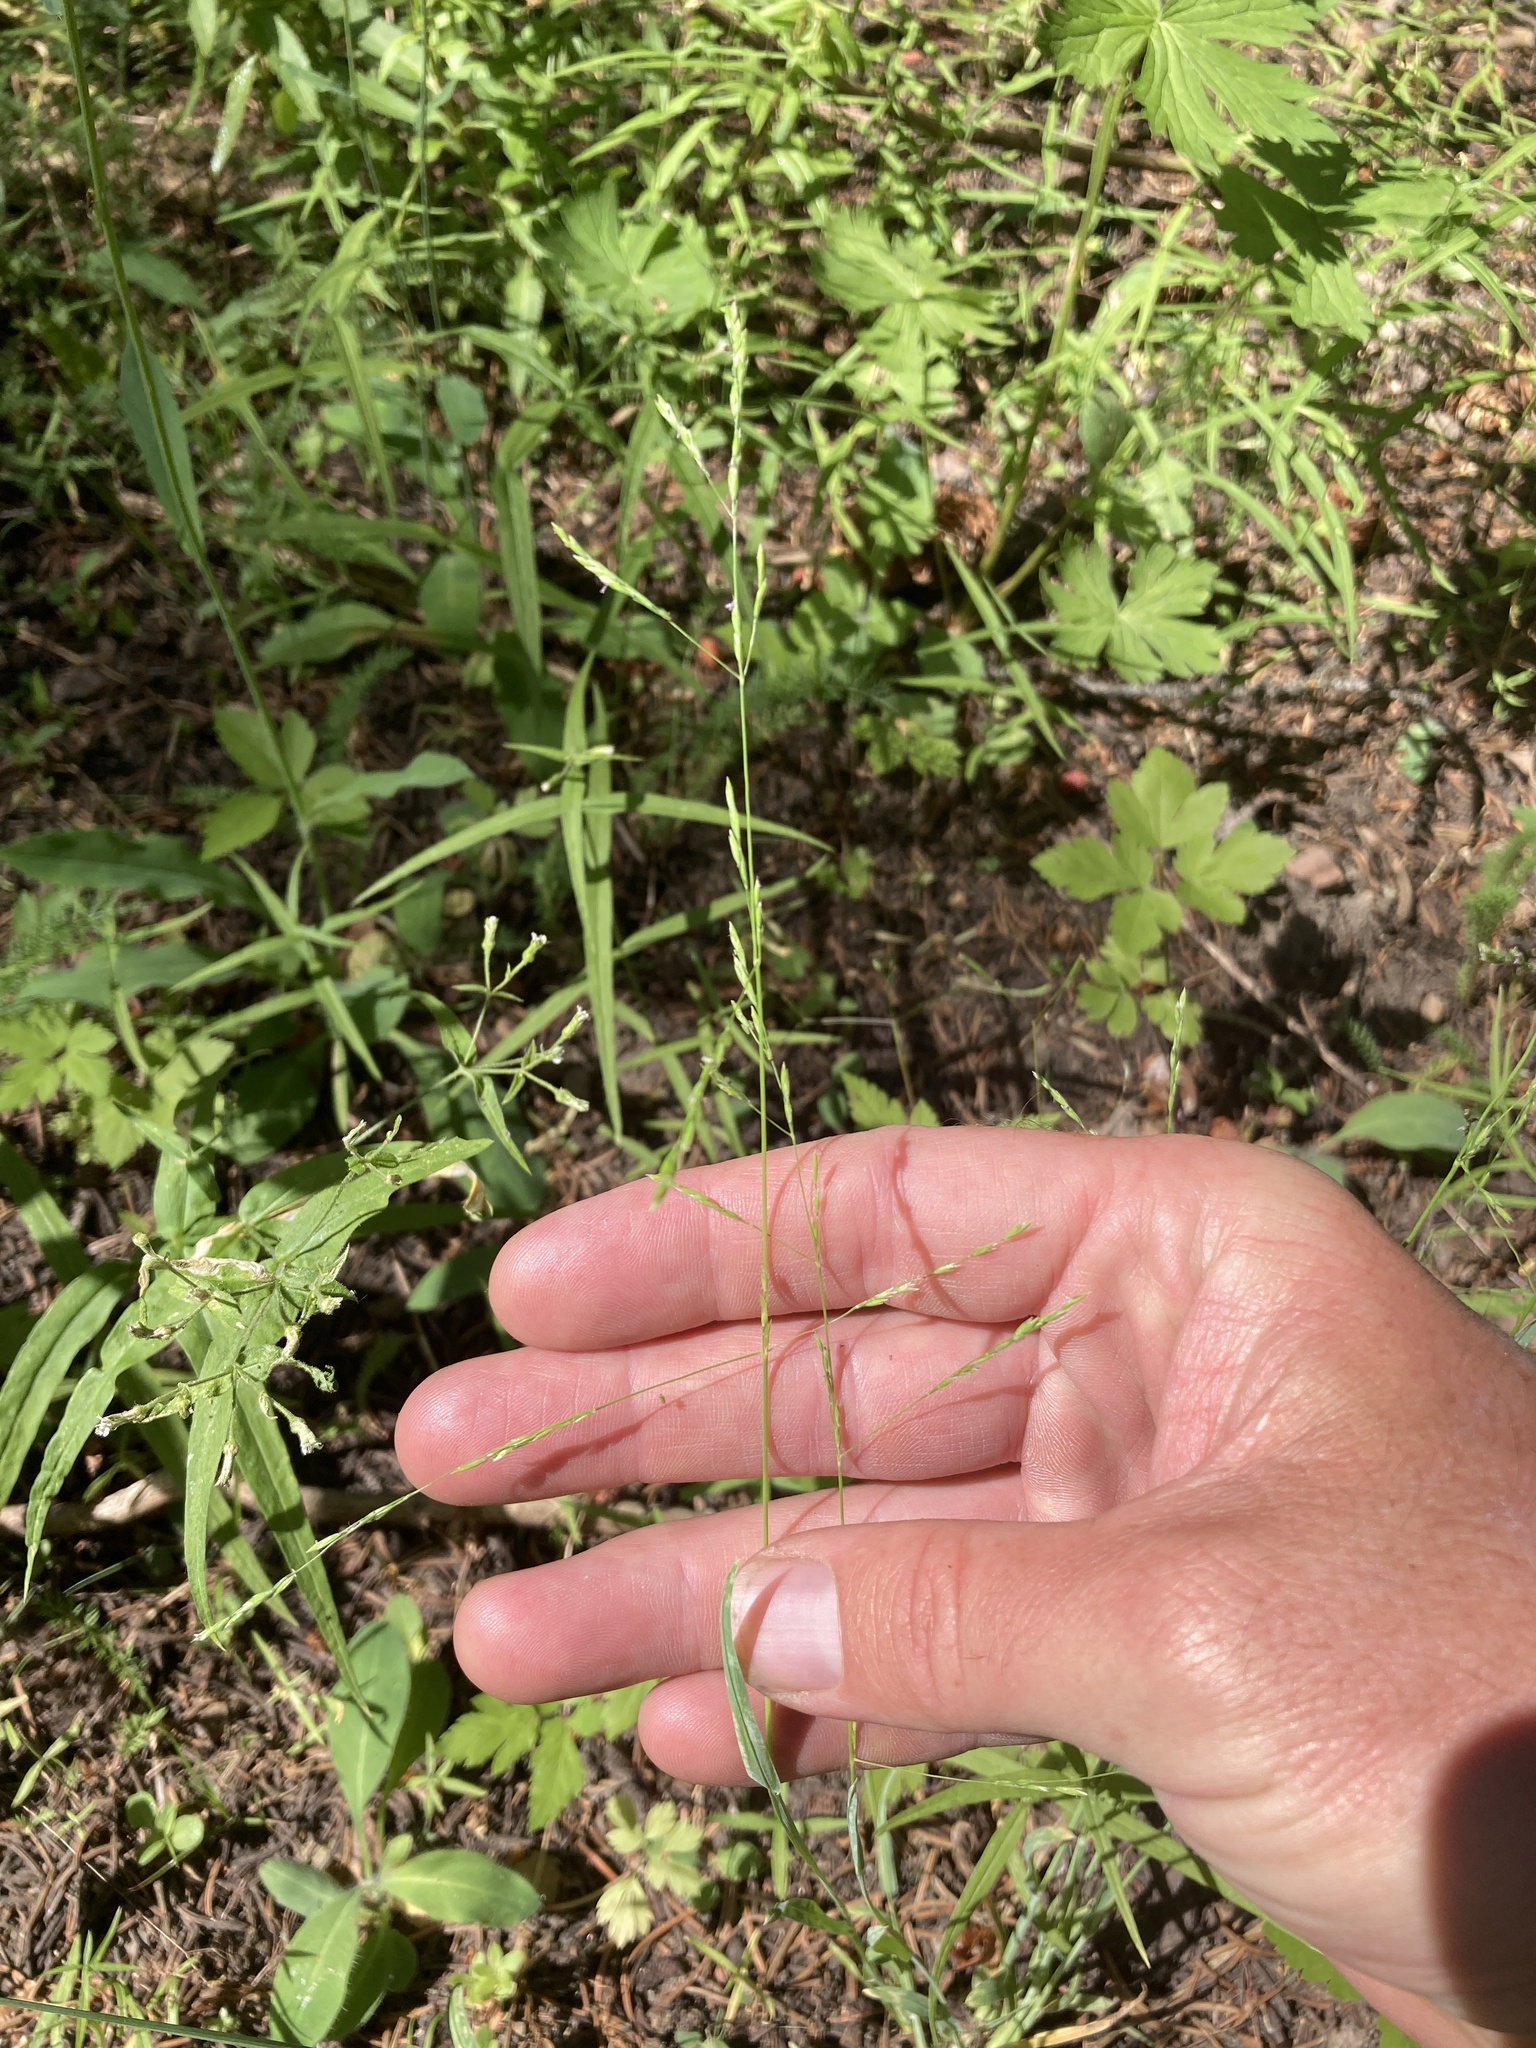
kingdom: Plantae
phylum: Tracheophyta
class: Liliopsida
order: Poales
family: Poaceae
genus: Poa
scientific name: Poa bolanderi
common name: Bolander's bluegrass
